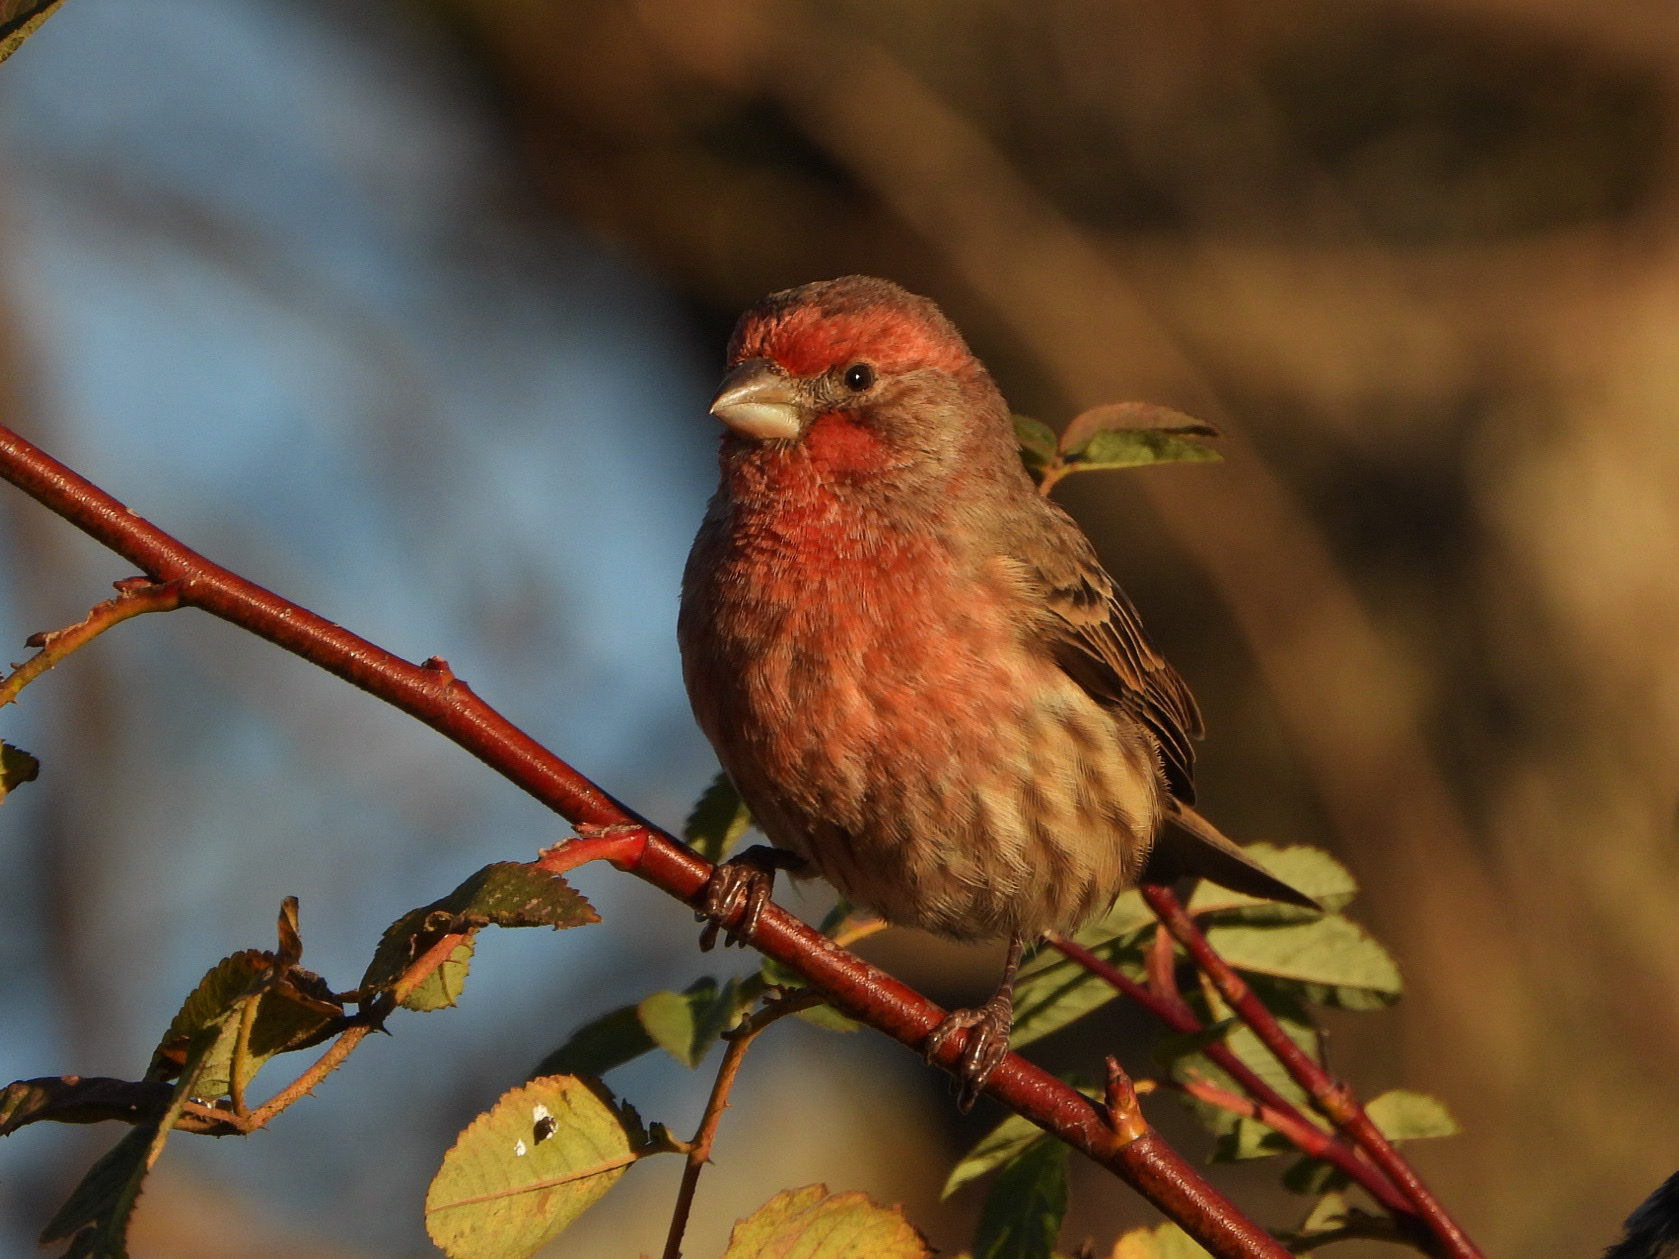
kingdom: Animalia
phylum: Chordata
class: Aves
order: Passeriformes
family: Fringillidae
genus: Haemorhous
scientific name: Haemorhous mexicanus
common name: House finch
